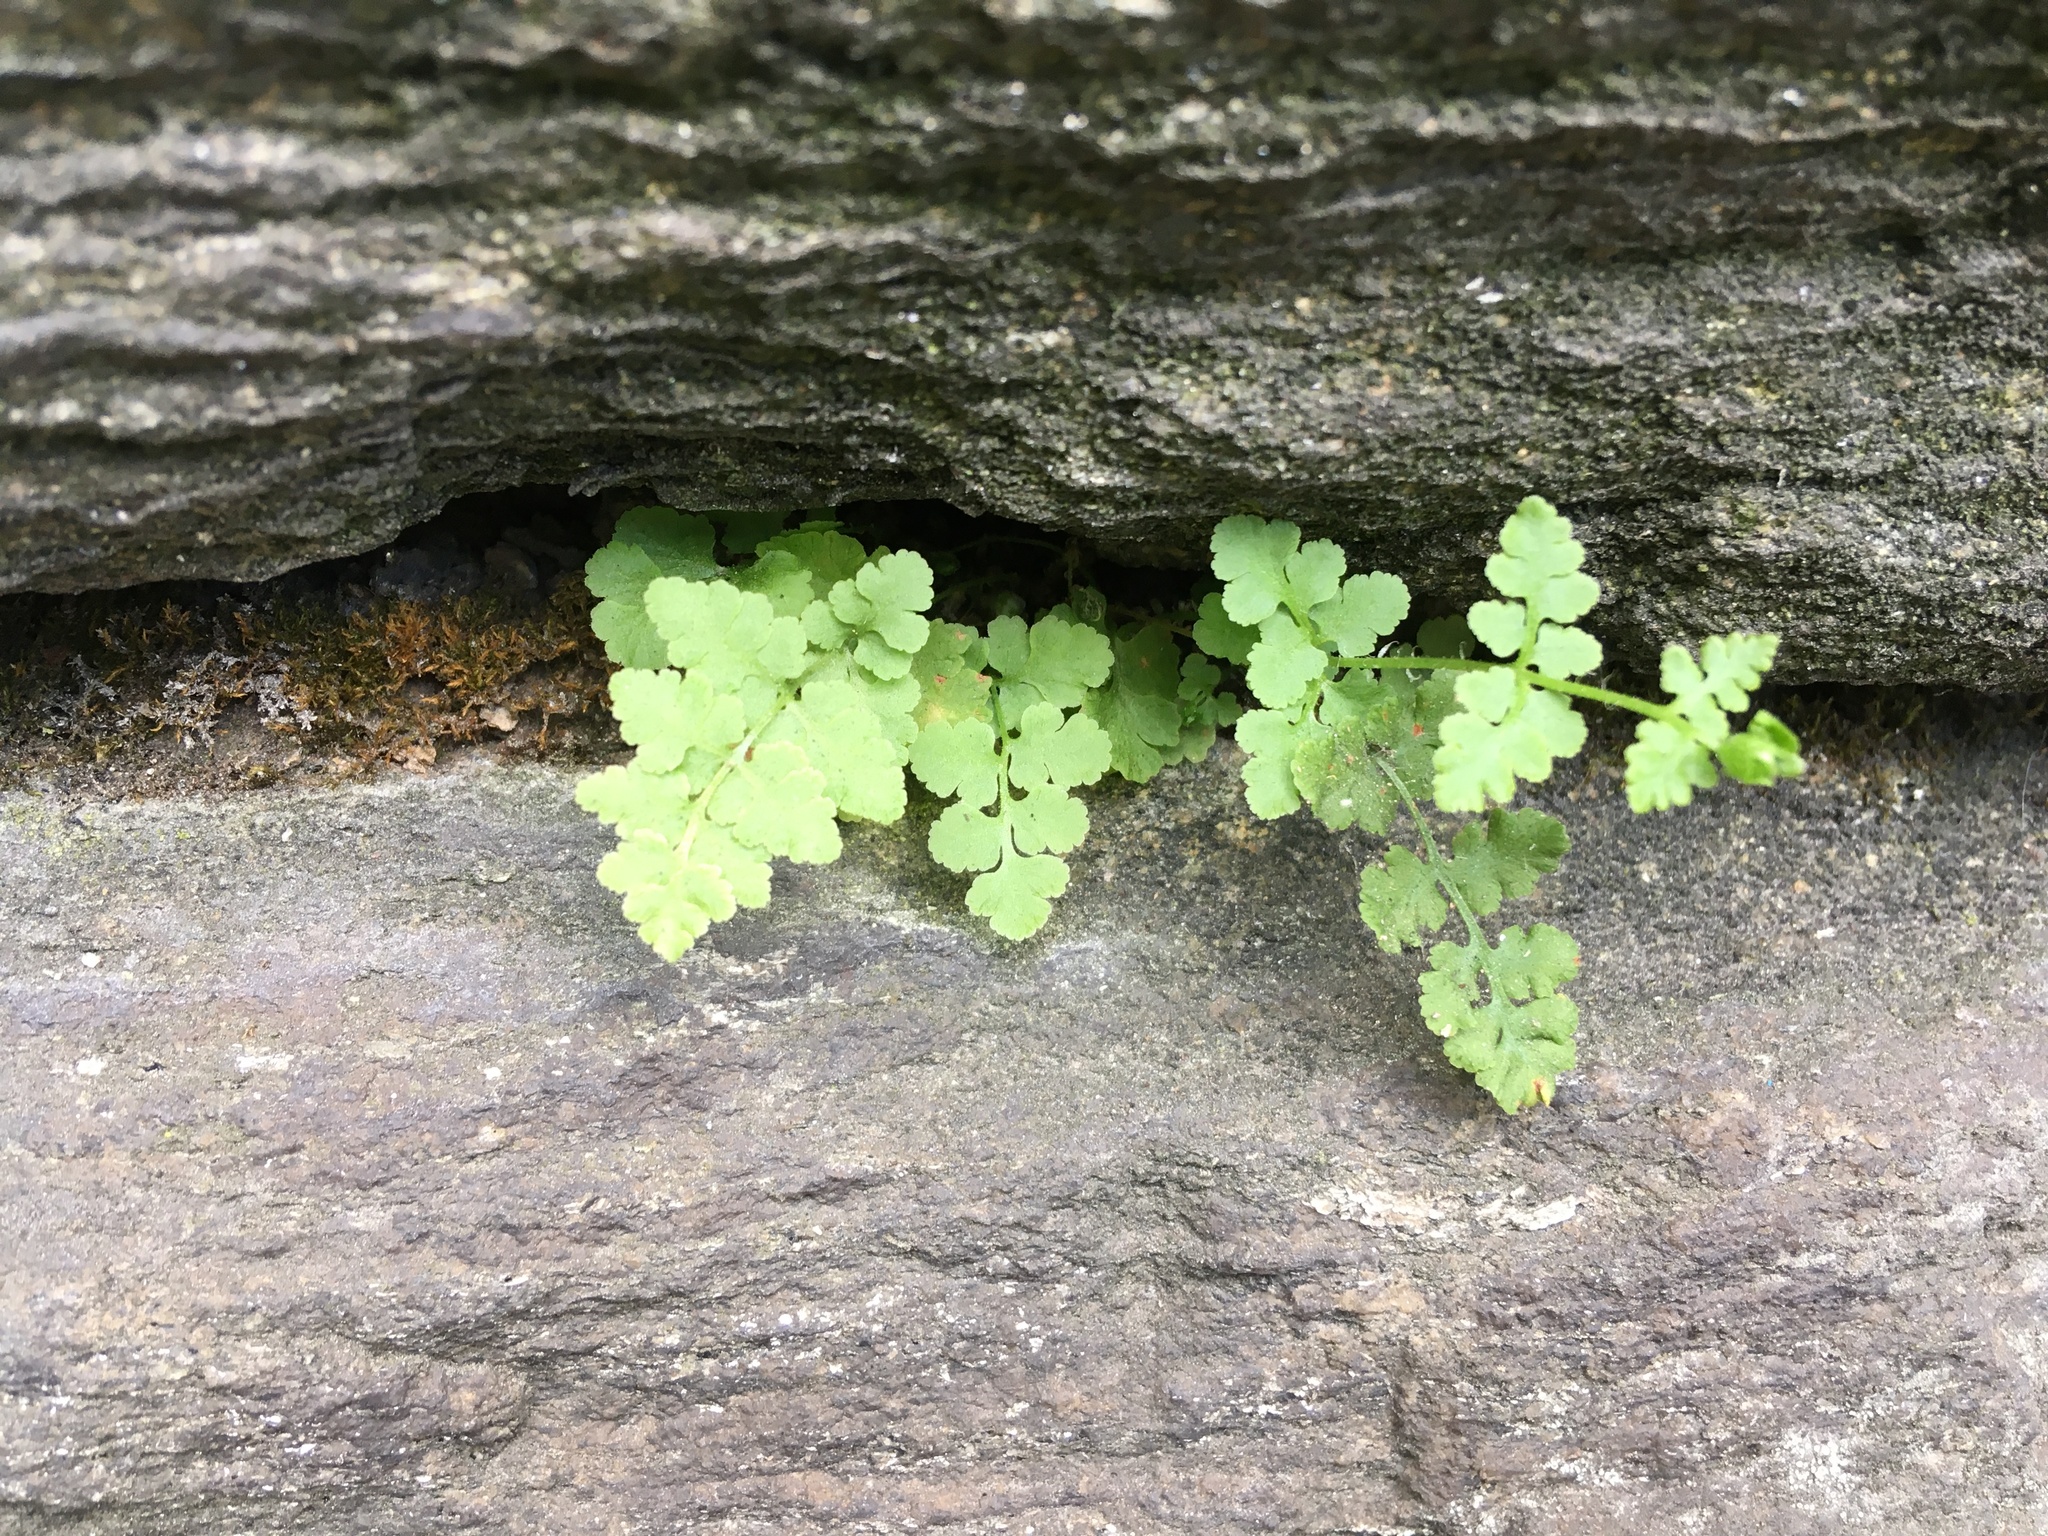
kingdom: Plantae
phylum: Tracheophyta
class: Polypodiopsida
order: Polypodiales
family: Woodsiaceae
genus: Physematium
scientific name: Physematium obtusum
